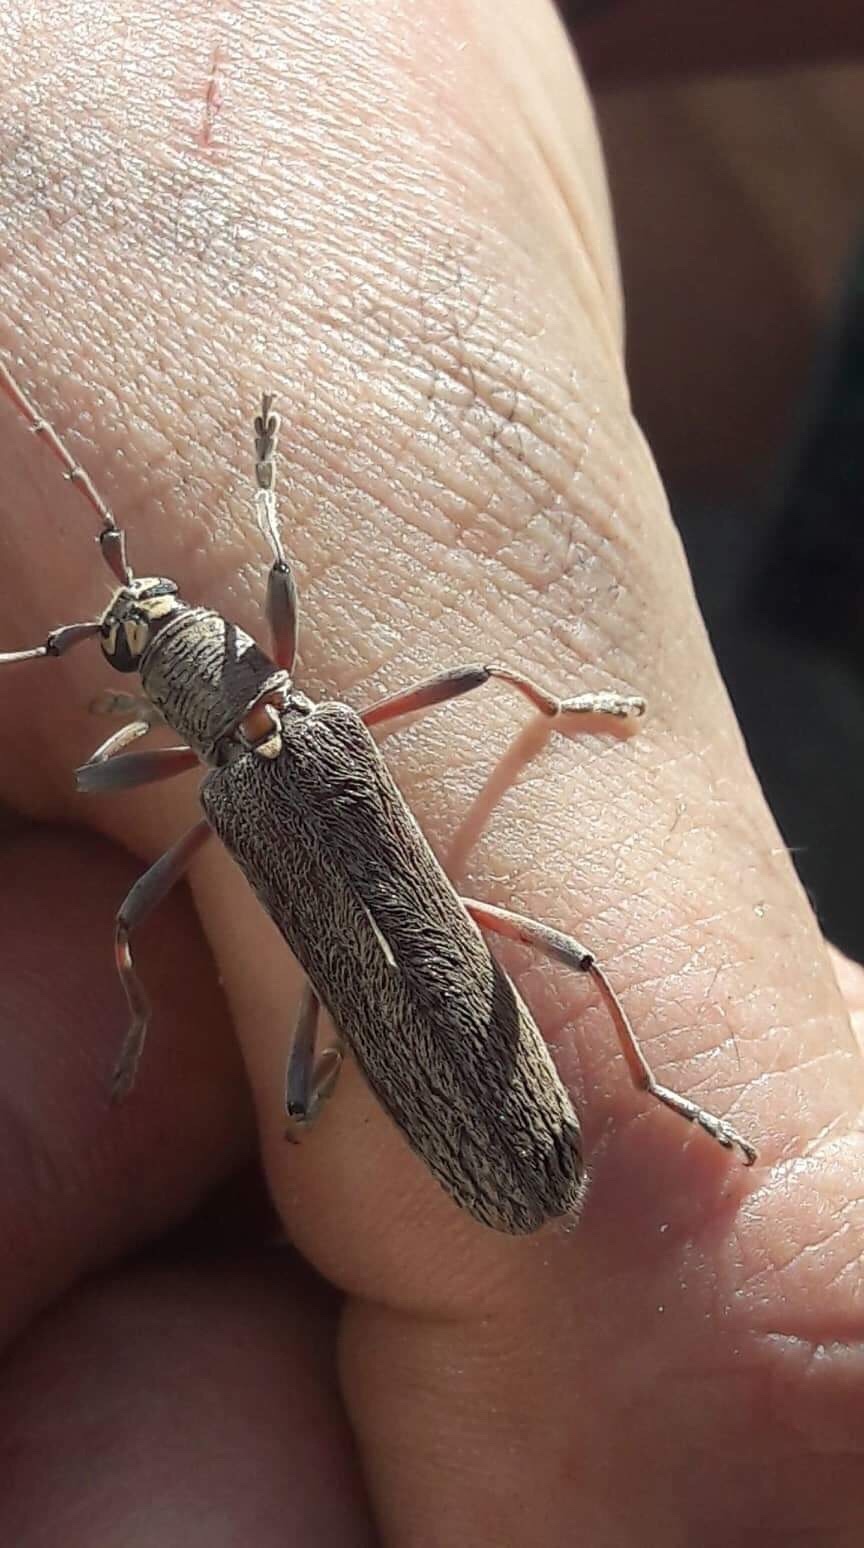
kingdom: Animalia
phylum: Arthropoda
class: Insecta
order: Coleoptera
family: Cerambycidae
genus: Oemona
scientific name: Oemona hirta
